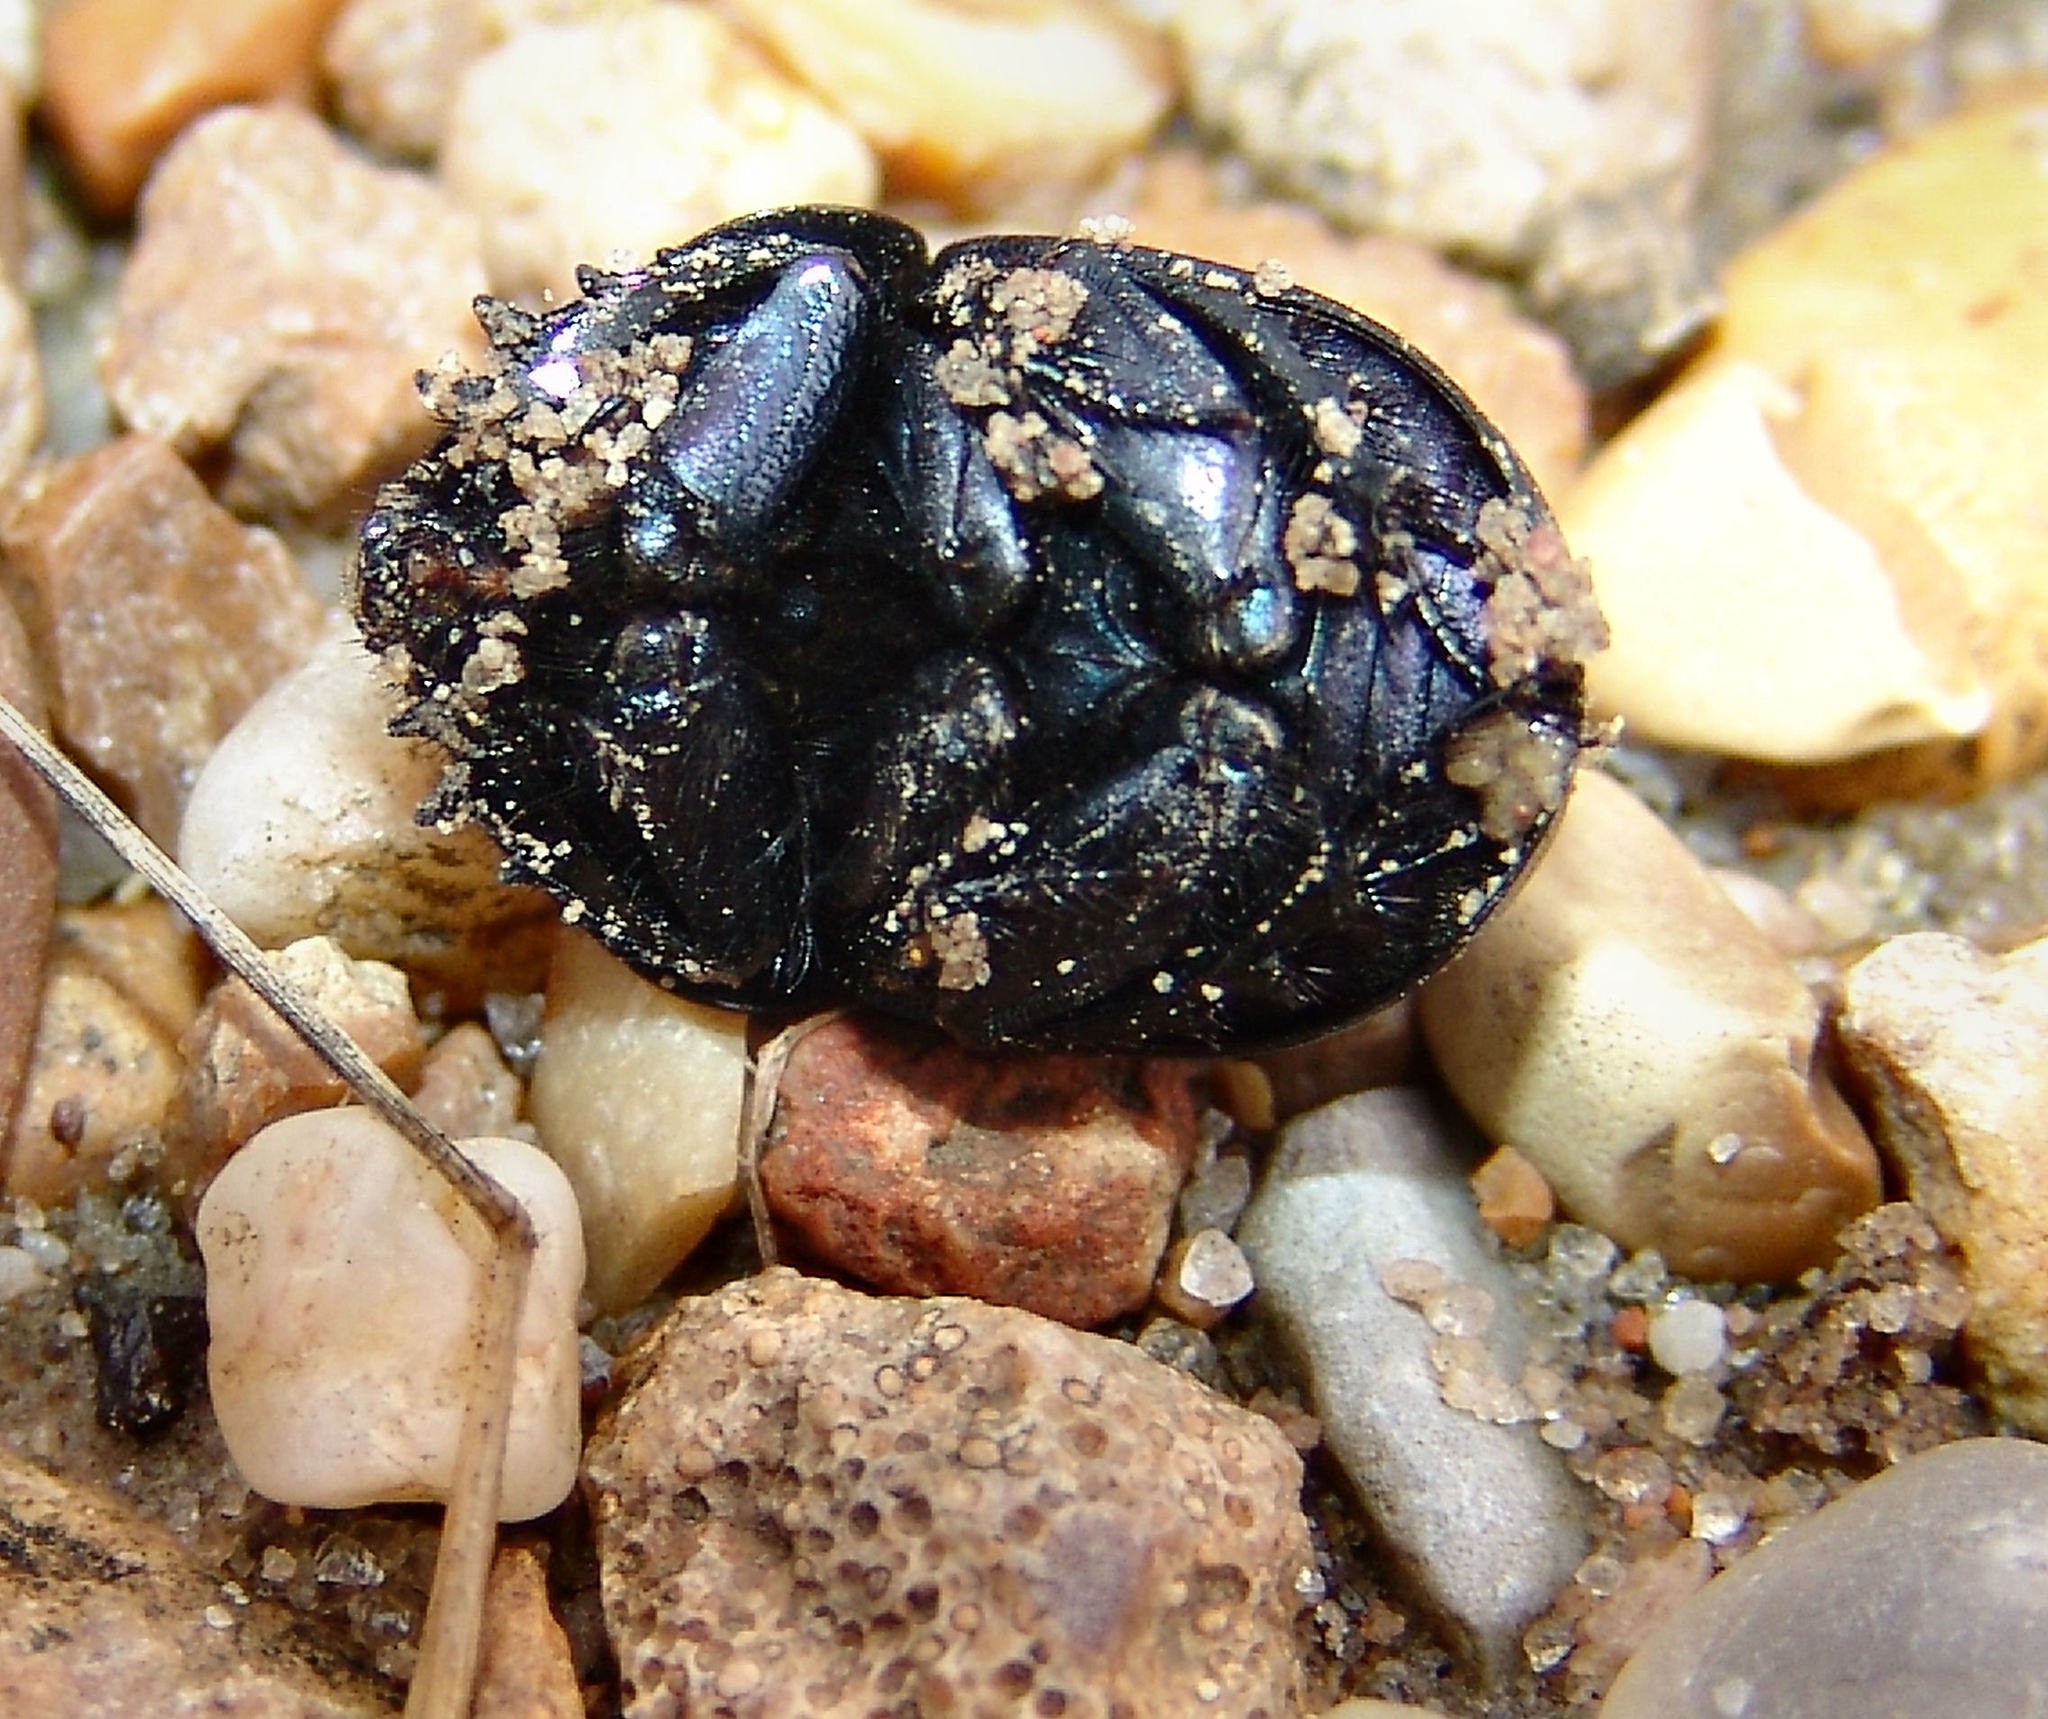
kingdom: Animalia
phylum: Arthropoda
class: Insecta
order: Coleoptera
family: Geotrupidae
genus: Geohowdenius
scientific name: Geohowdenius opacus
